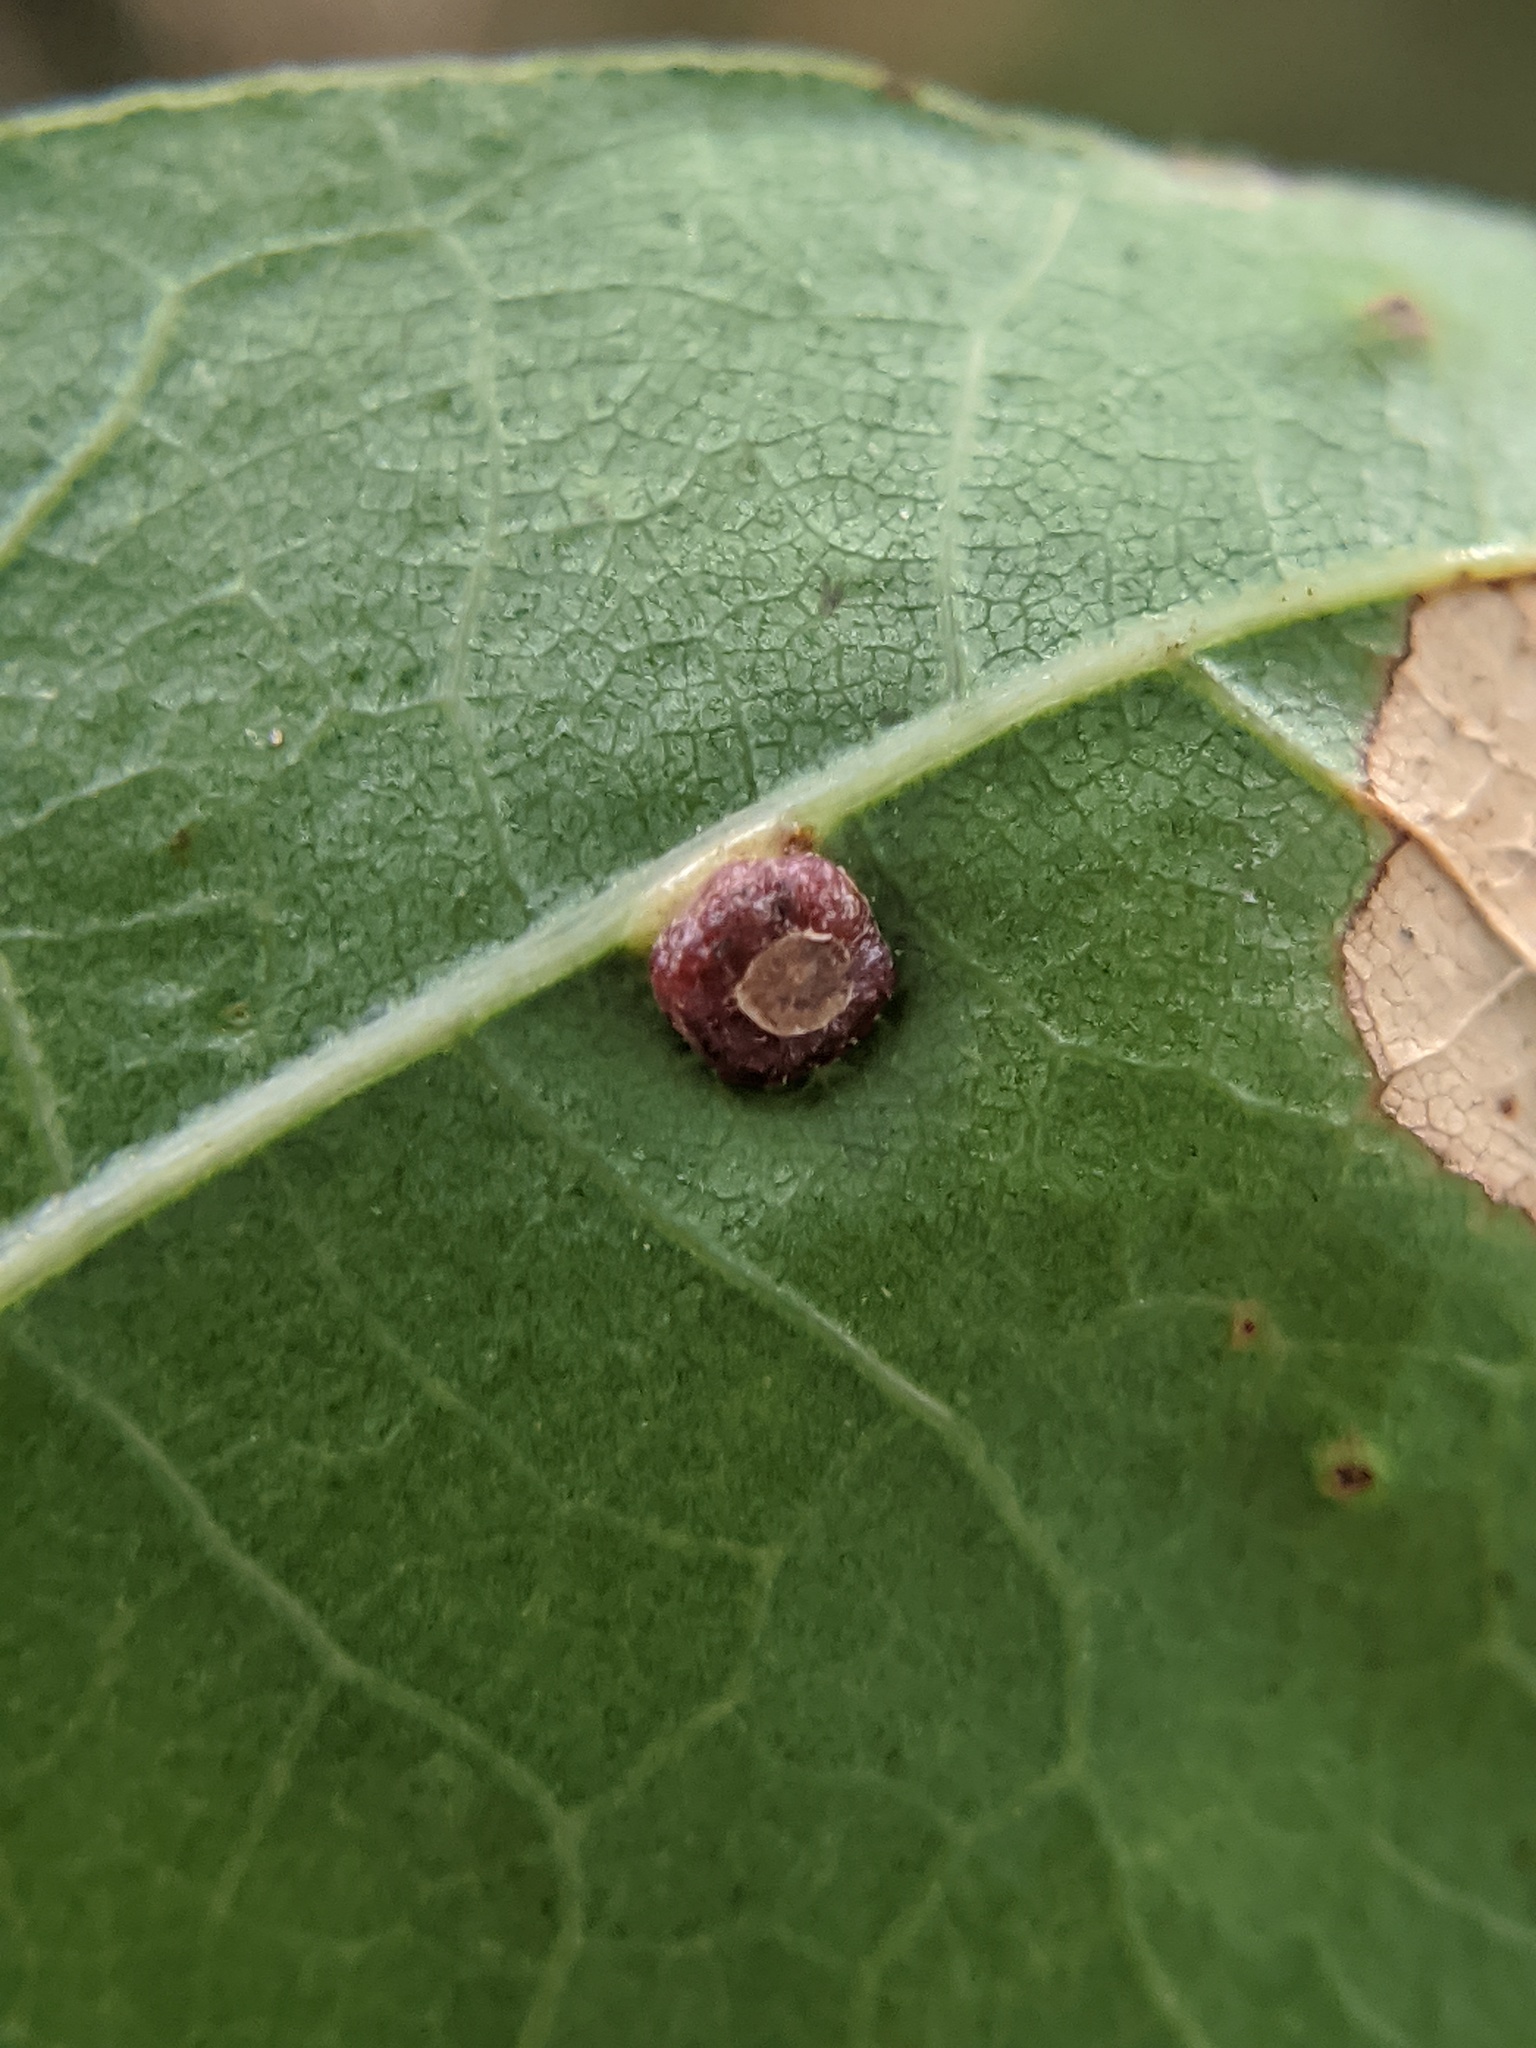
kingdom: Animalia
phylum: Arthropoda
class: Insecta
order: Diptera
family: Cecidomyiidae
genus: Polystepha
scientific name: Polystepha globosa
